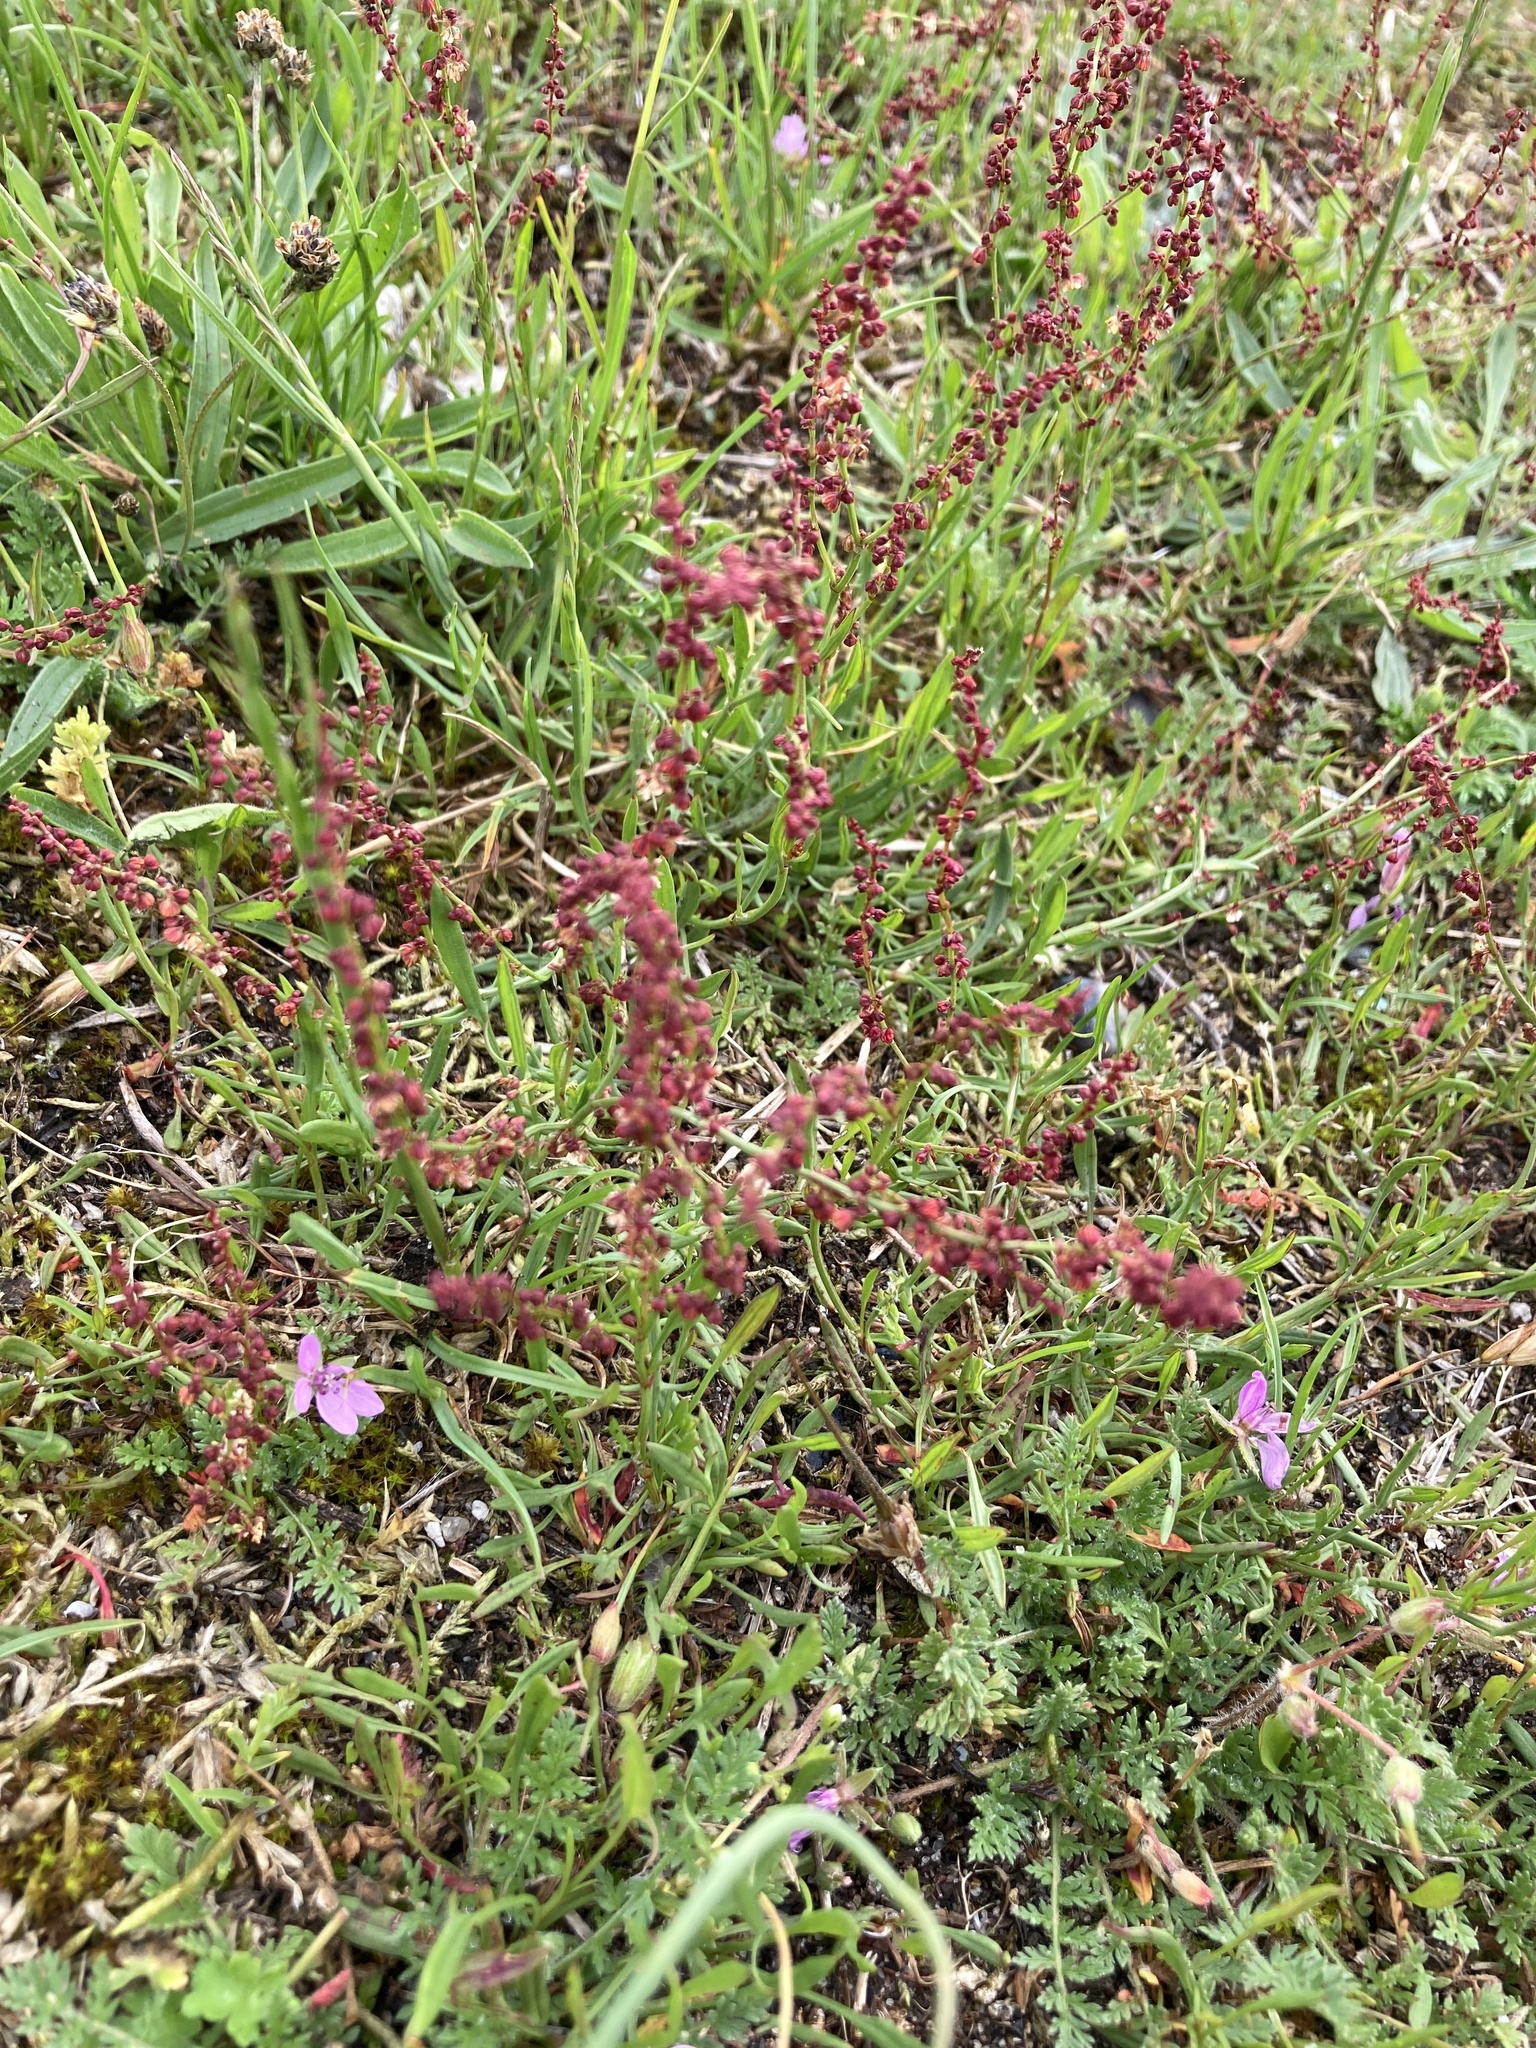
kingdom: Plantae
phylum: Tracheophyta
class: Magnoliopsida
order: Caryophyllales
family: Polygonaceae
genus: Rumex
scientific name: Rumex acetosella
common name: Common sheep sorrel
